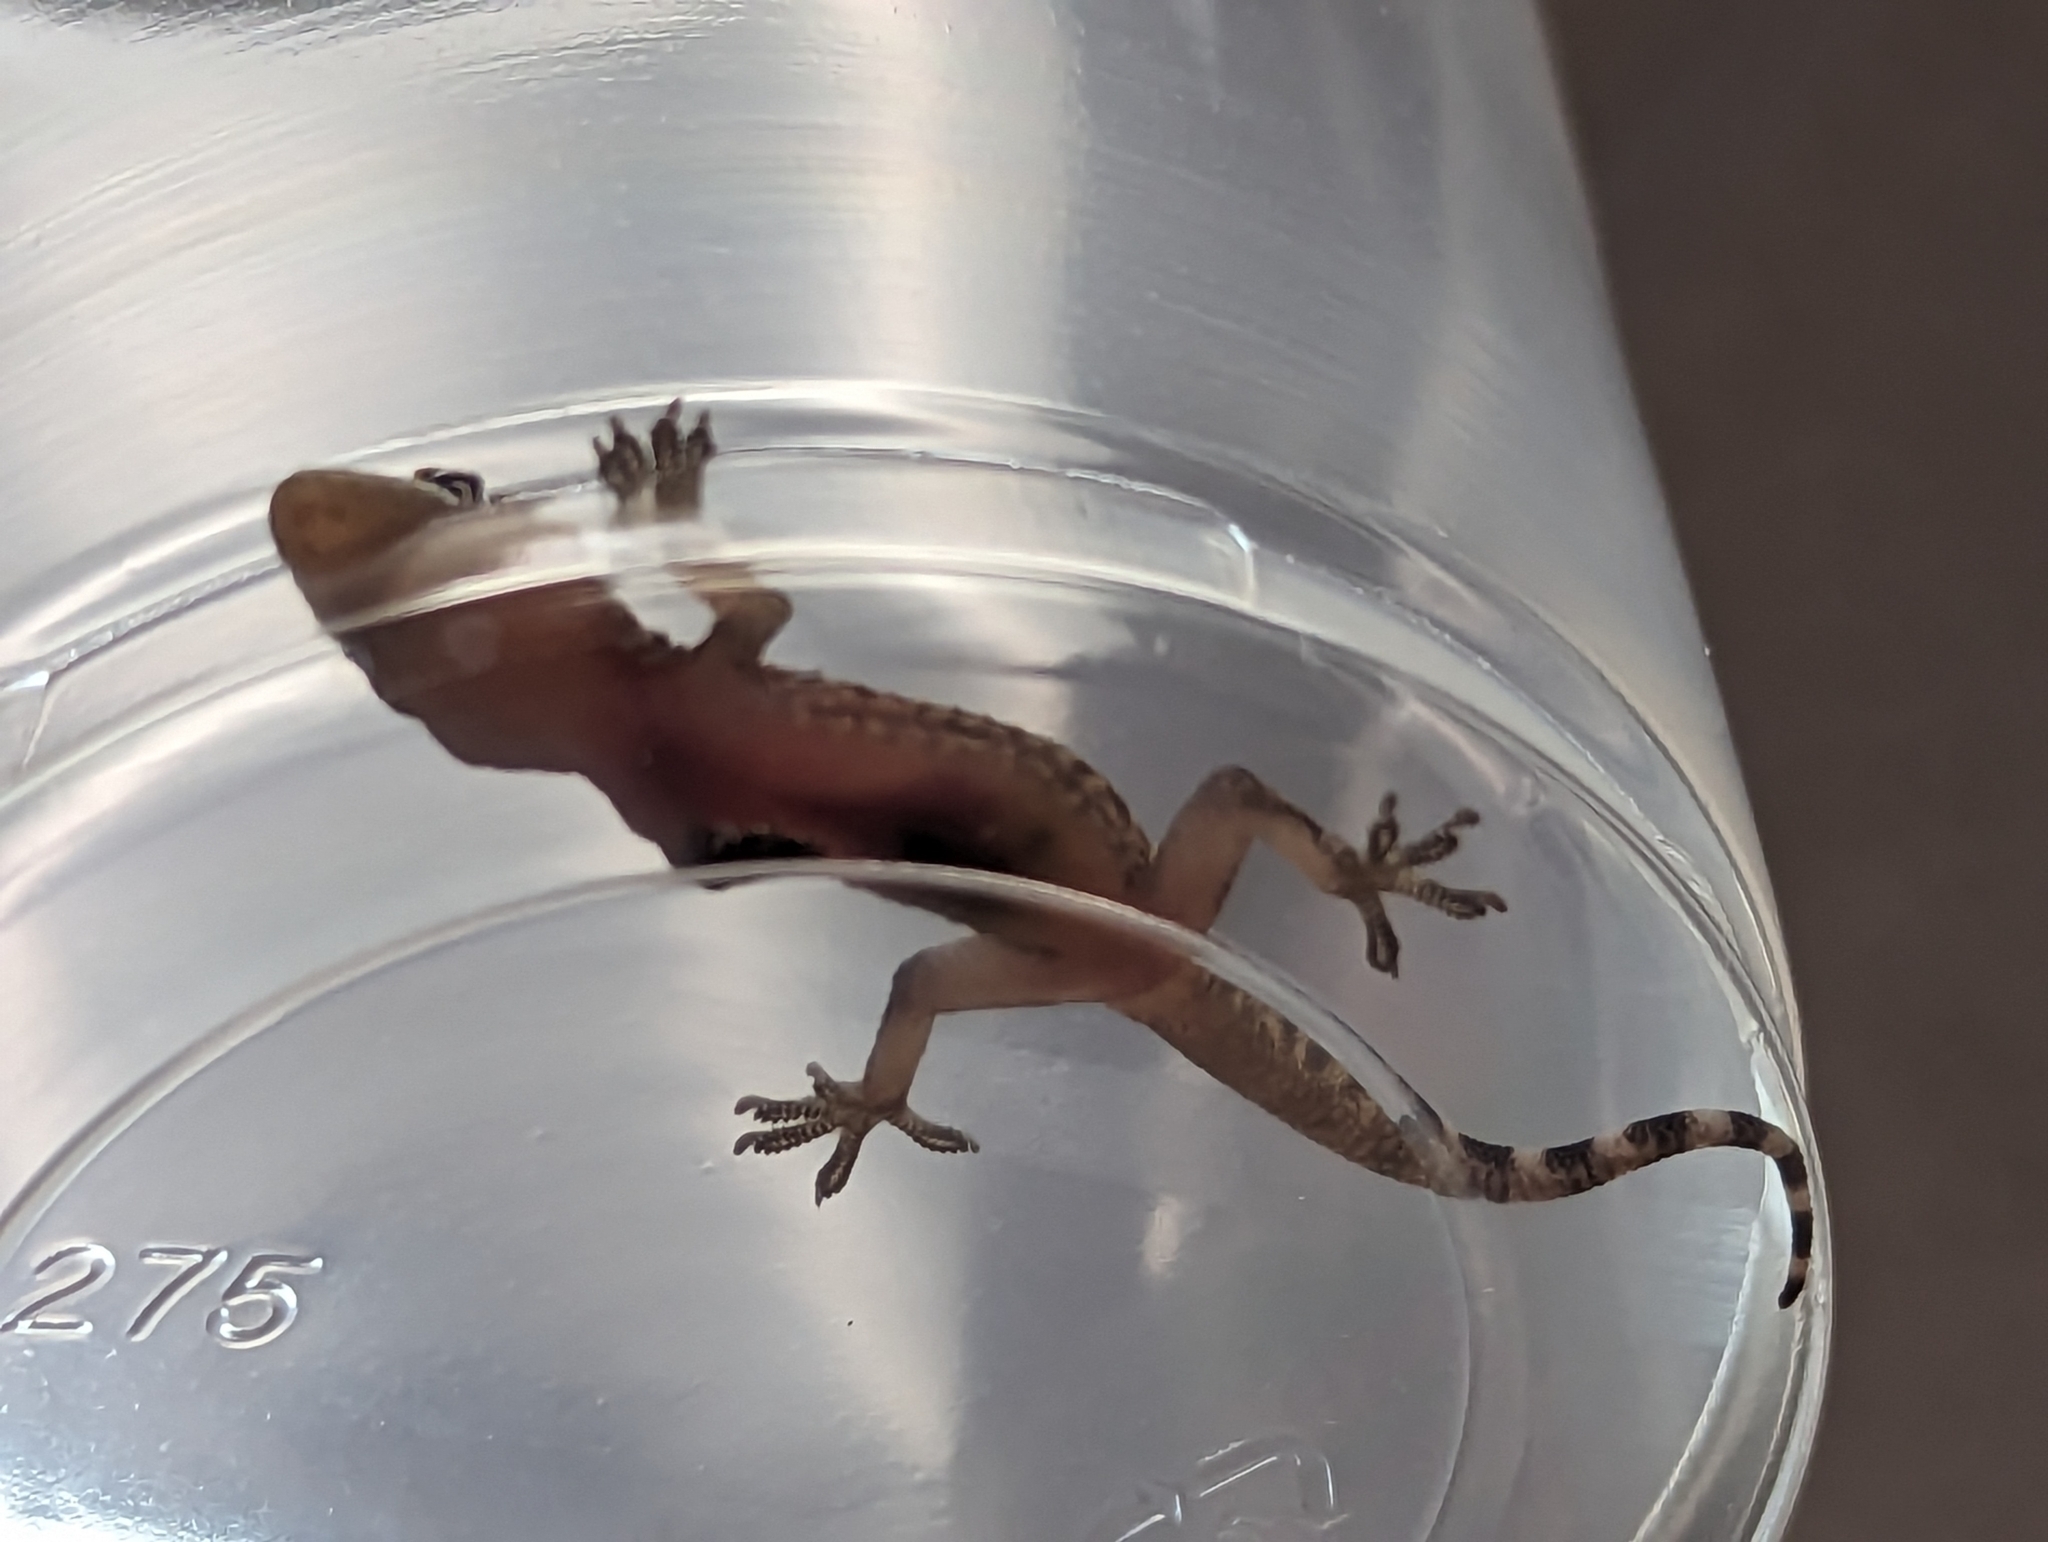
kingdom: Animalia
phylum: Chordata
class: Squamata
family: Gekkonidae
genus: Hemidactylus
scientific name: Hemidactylus turcicus
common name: Turkish gecko
